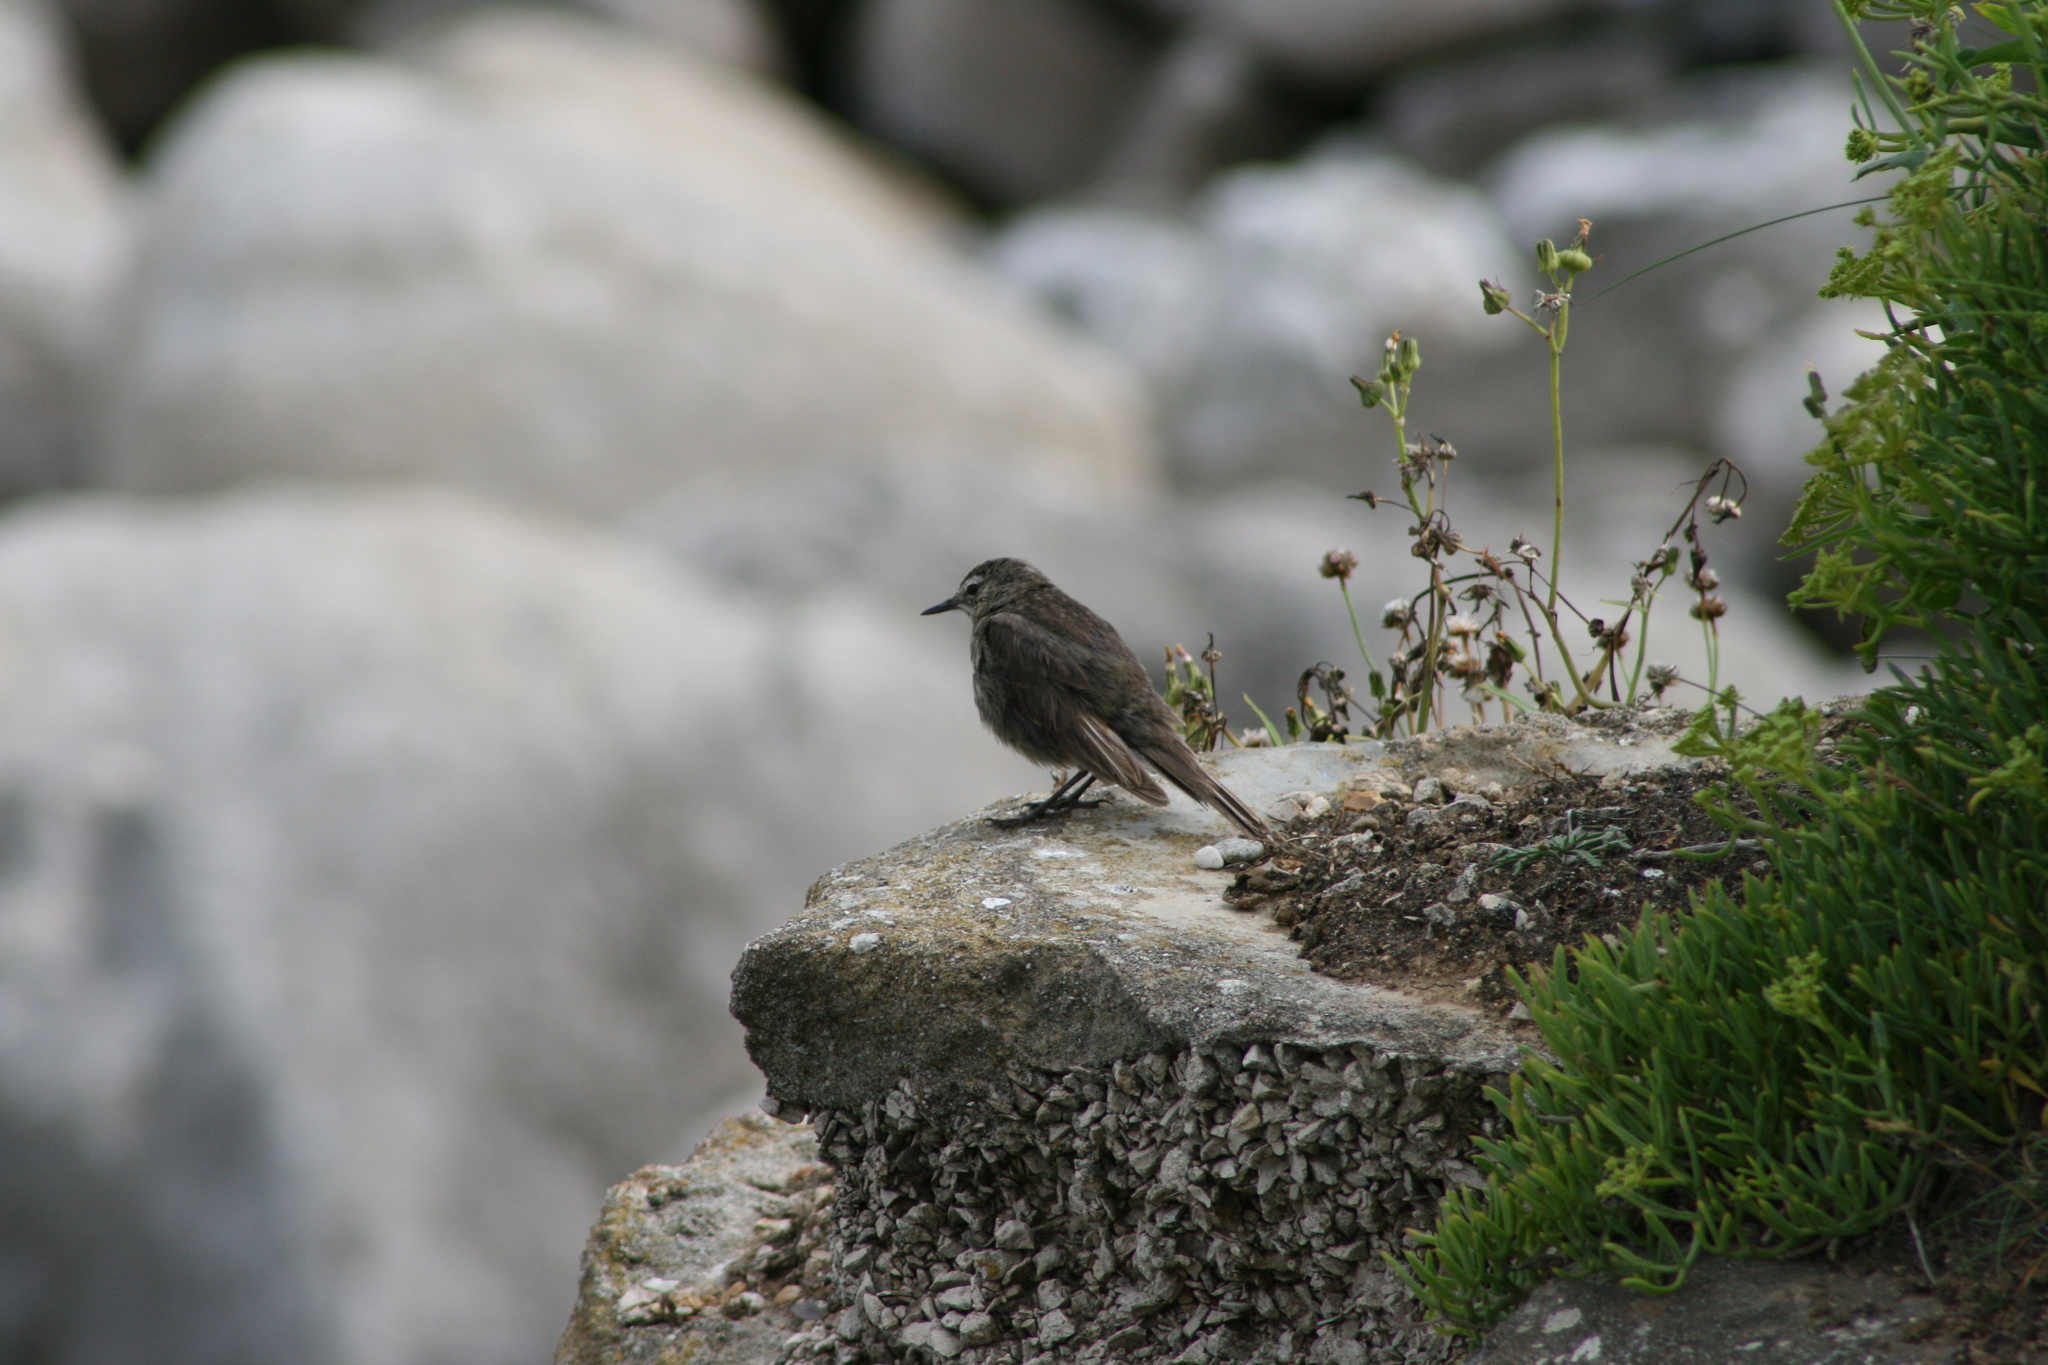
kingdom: Animalia
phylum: Chordata
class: Aves
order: Passeriformes
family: Motacillidae
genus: Anthus
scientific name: Anthus petrosus
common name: Eurasian rock pipit
